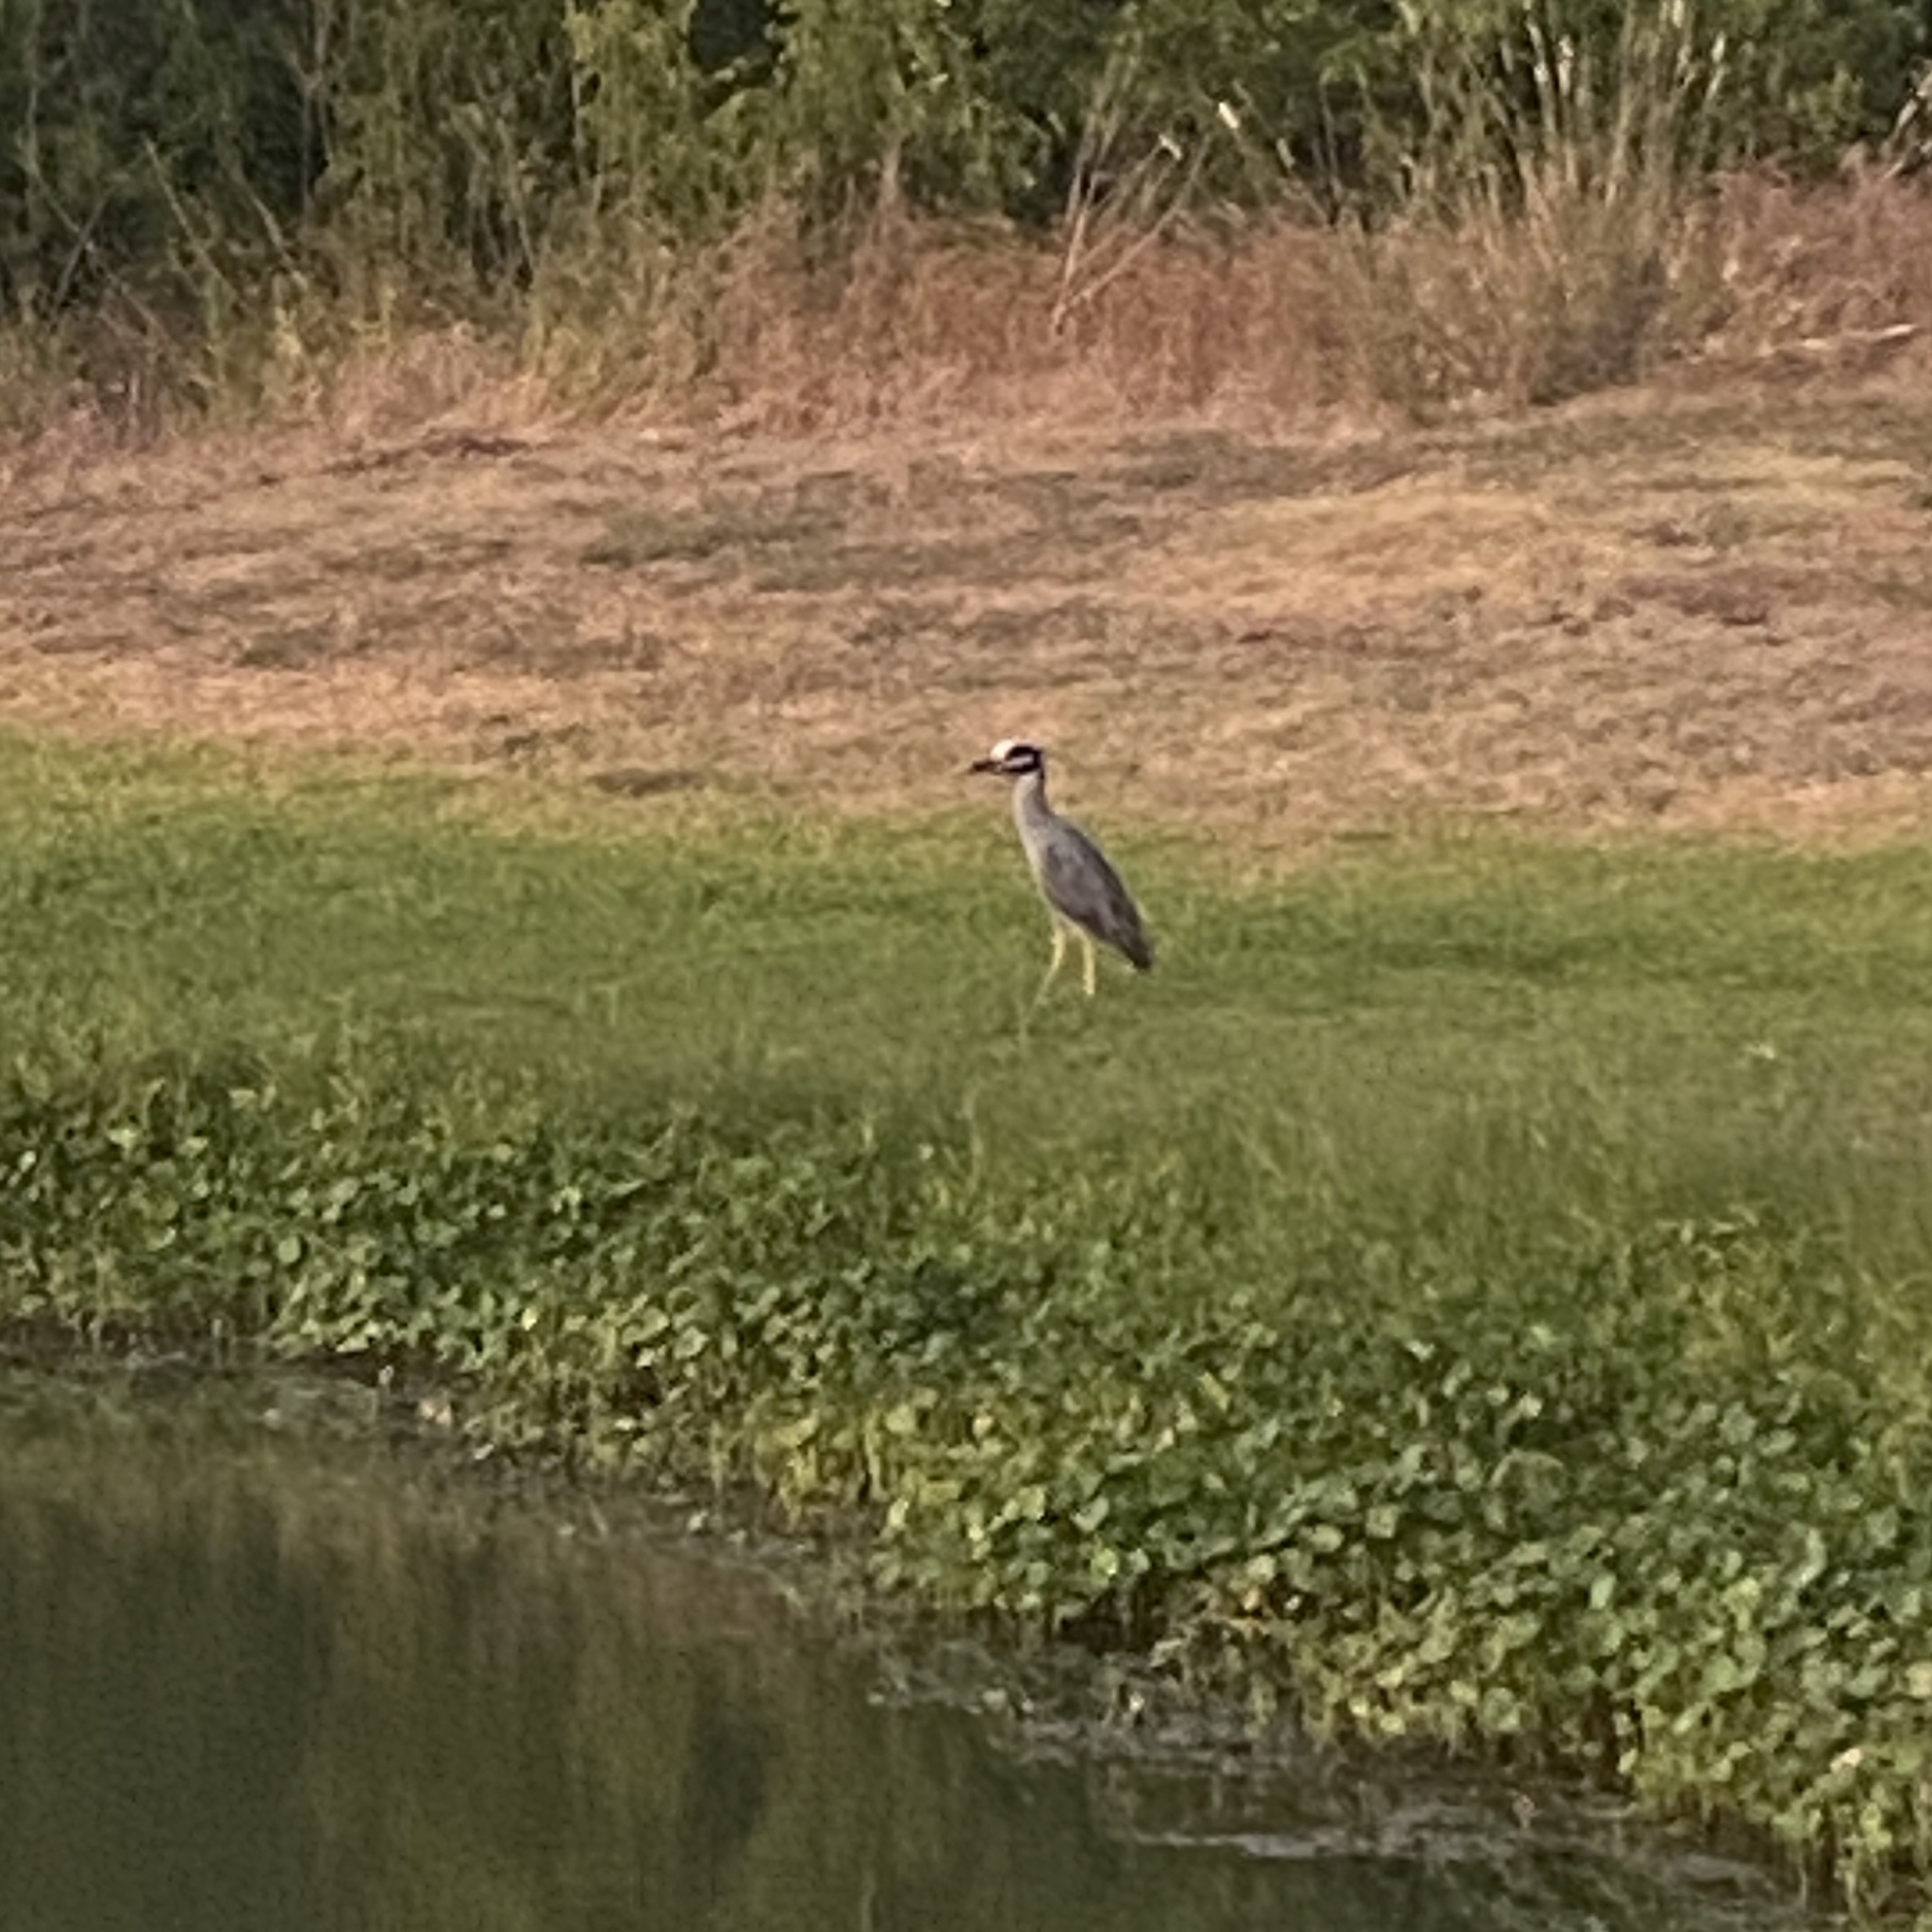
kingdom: Animalia
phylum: Chordata
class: Aves
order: Pelecaniformes
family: Ardeidae
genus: Nyctanassa
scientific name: Nyctanassa violacea
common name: Yellow-crowned night heron
